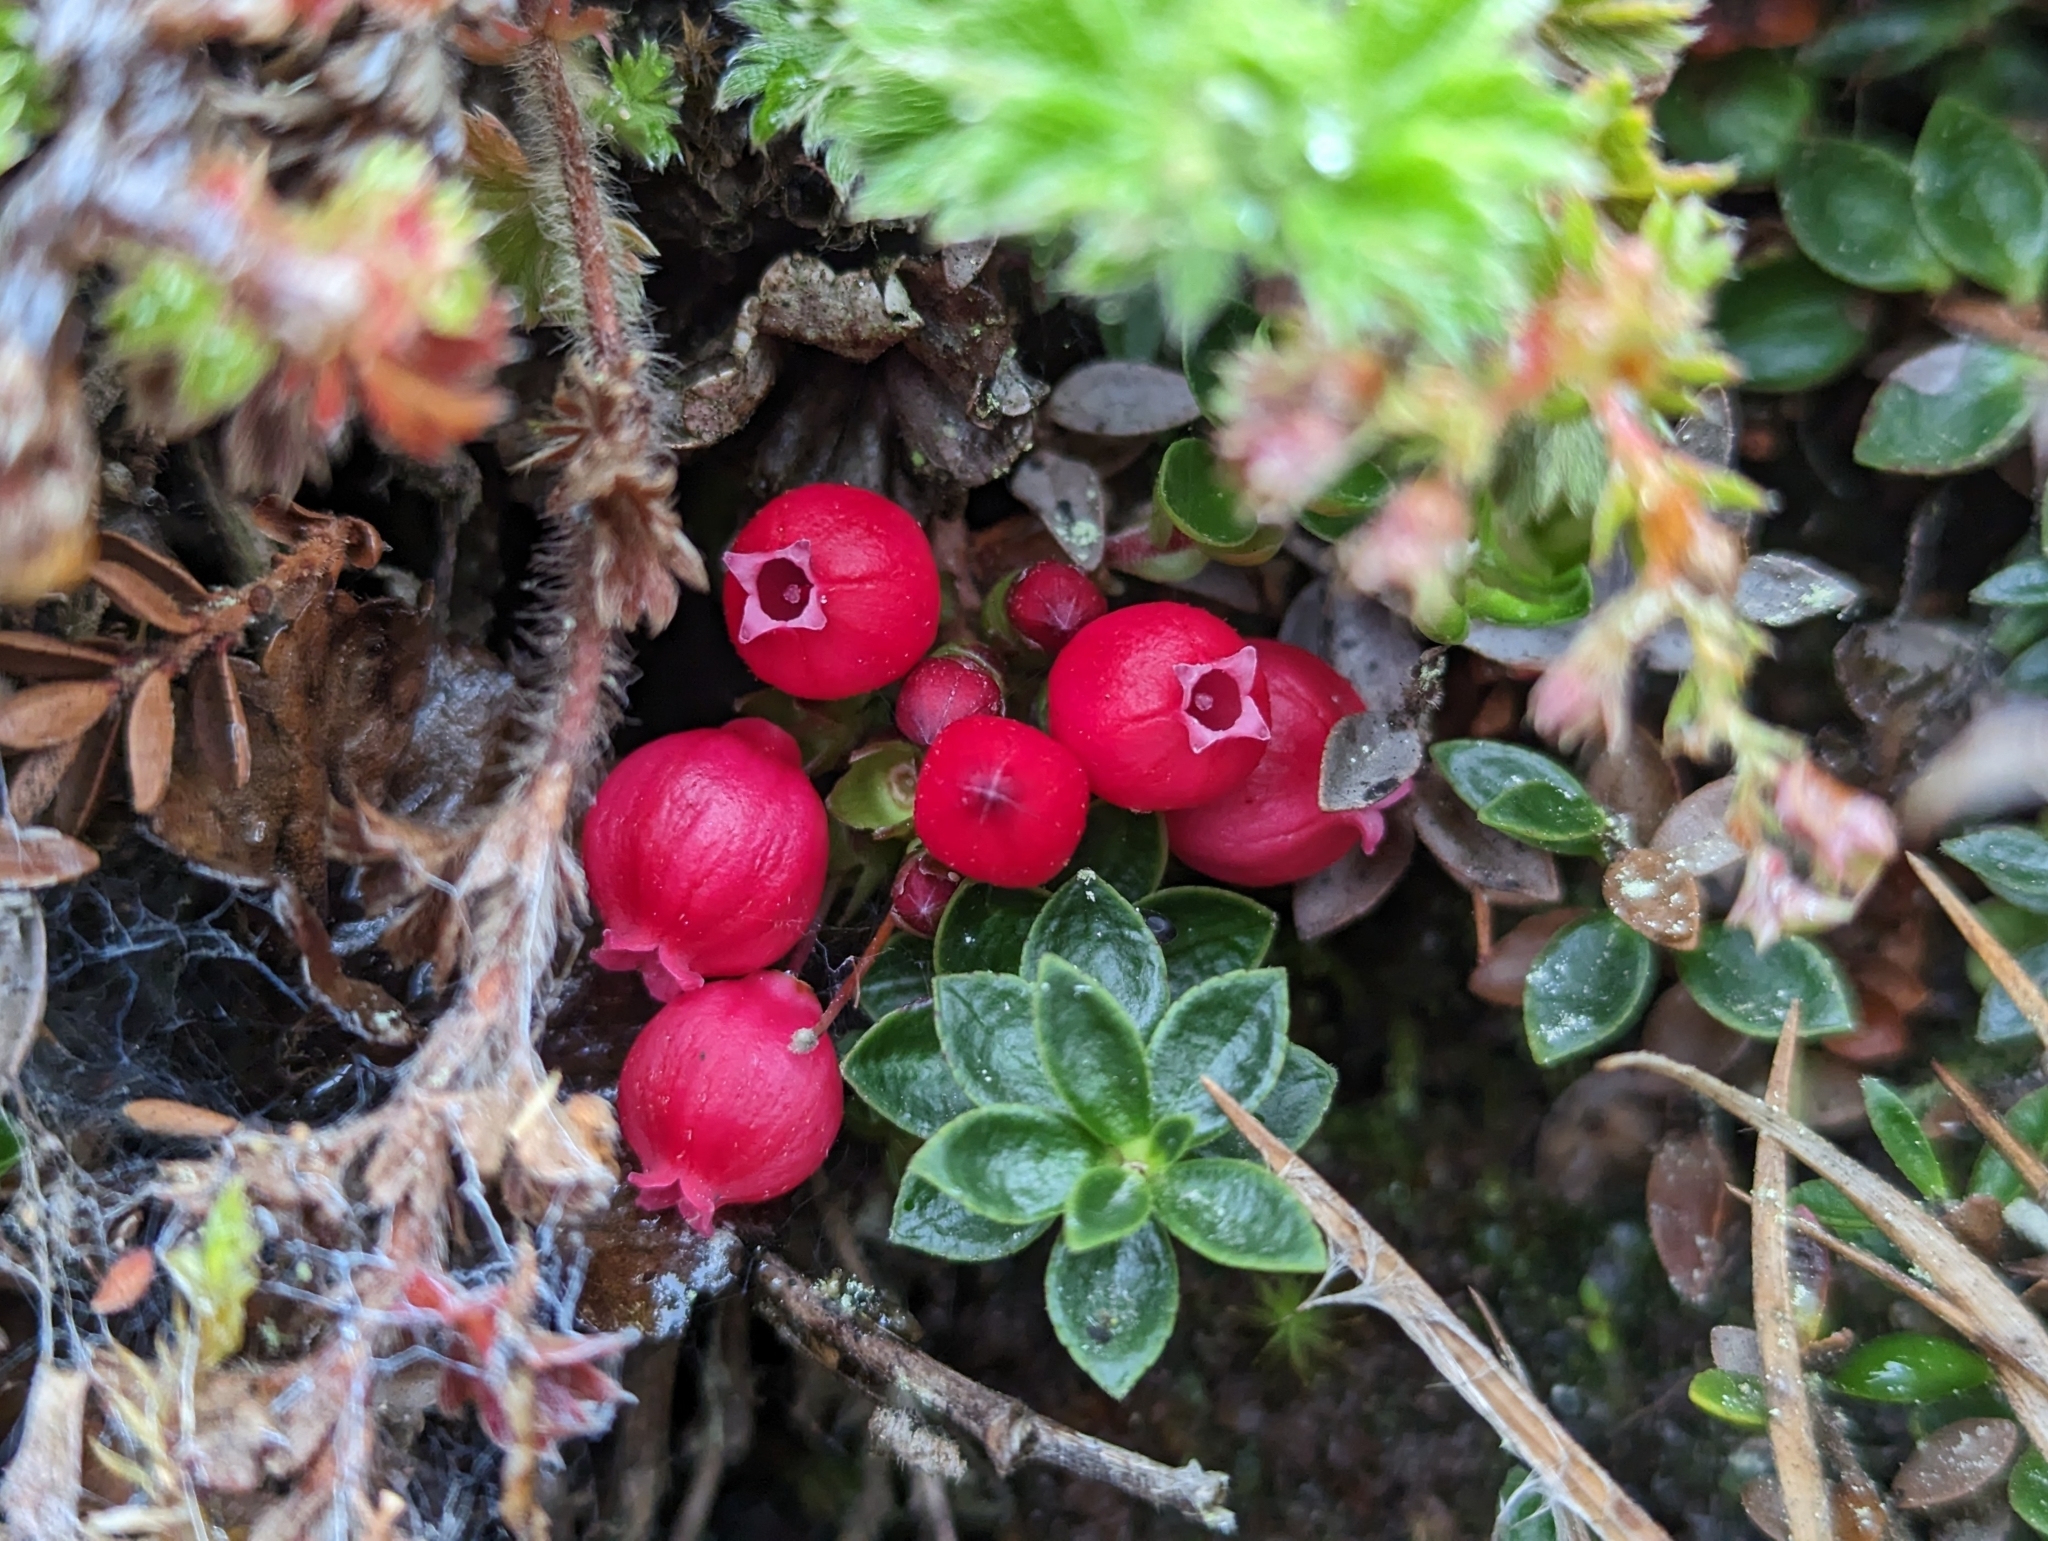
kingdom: Plantae
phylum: Tracheophyta
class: Magnoliopsida
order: Ericales
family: Ericaceae
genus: Disterigma
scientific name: Disterigma empetrifolium
